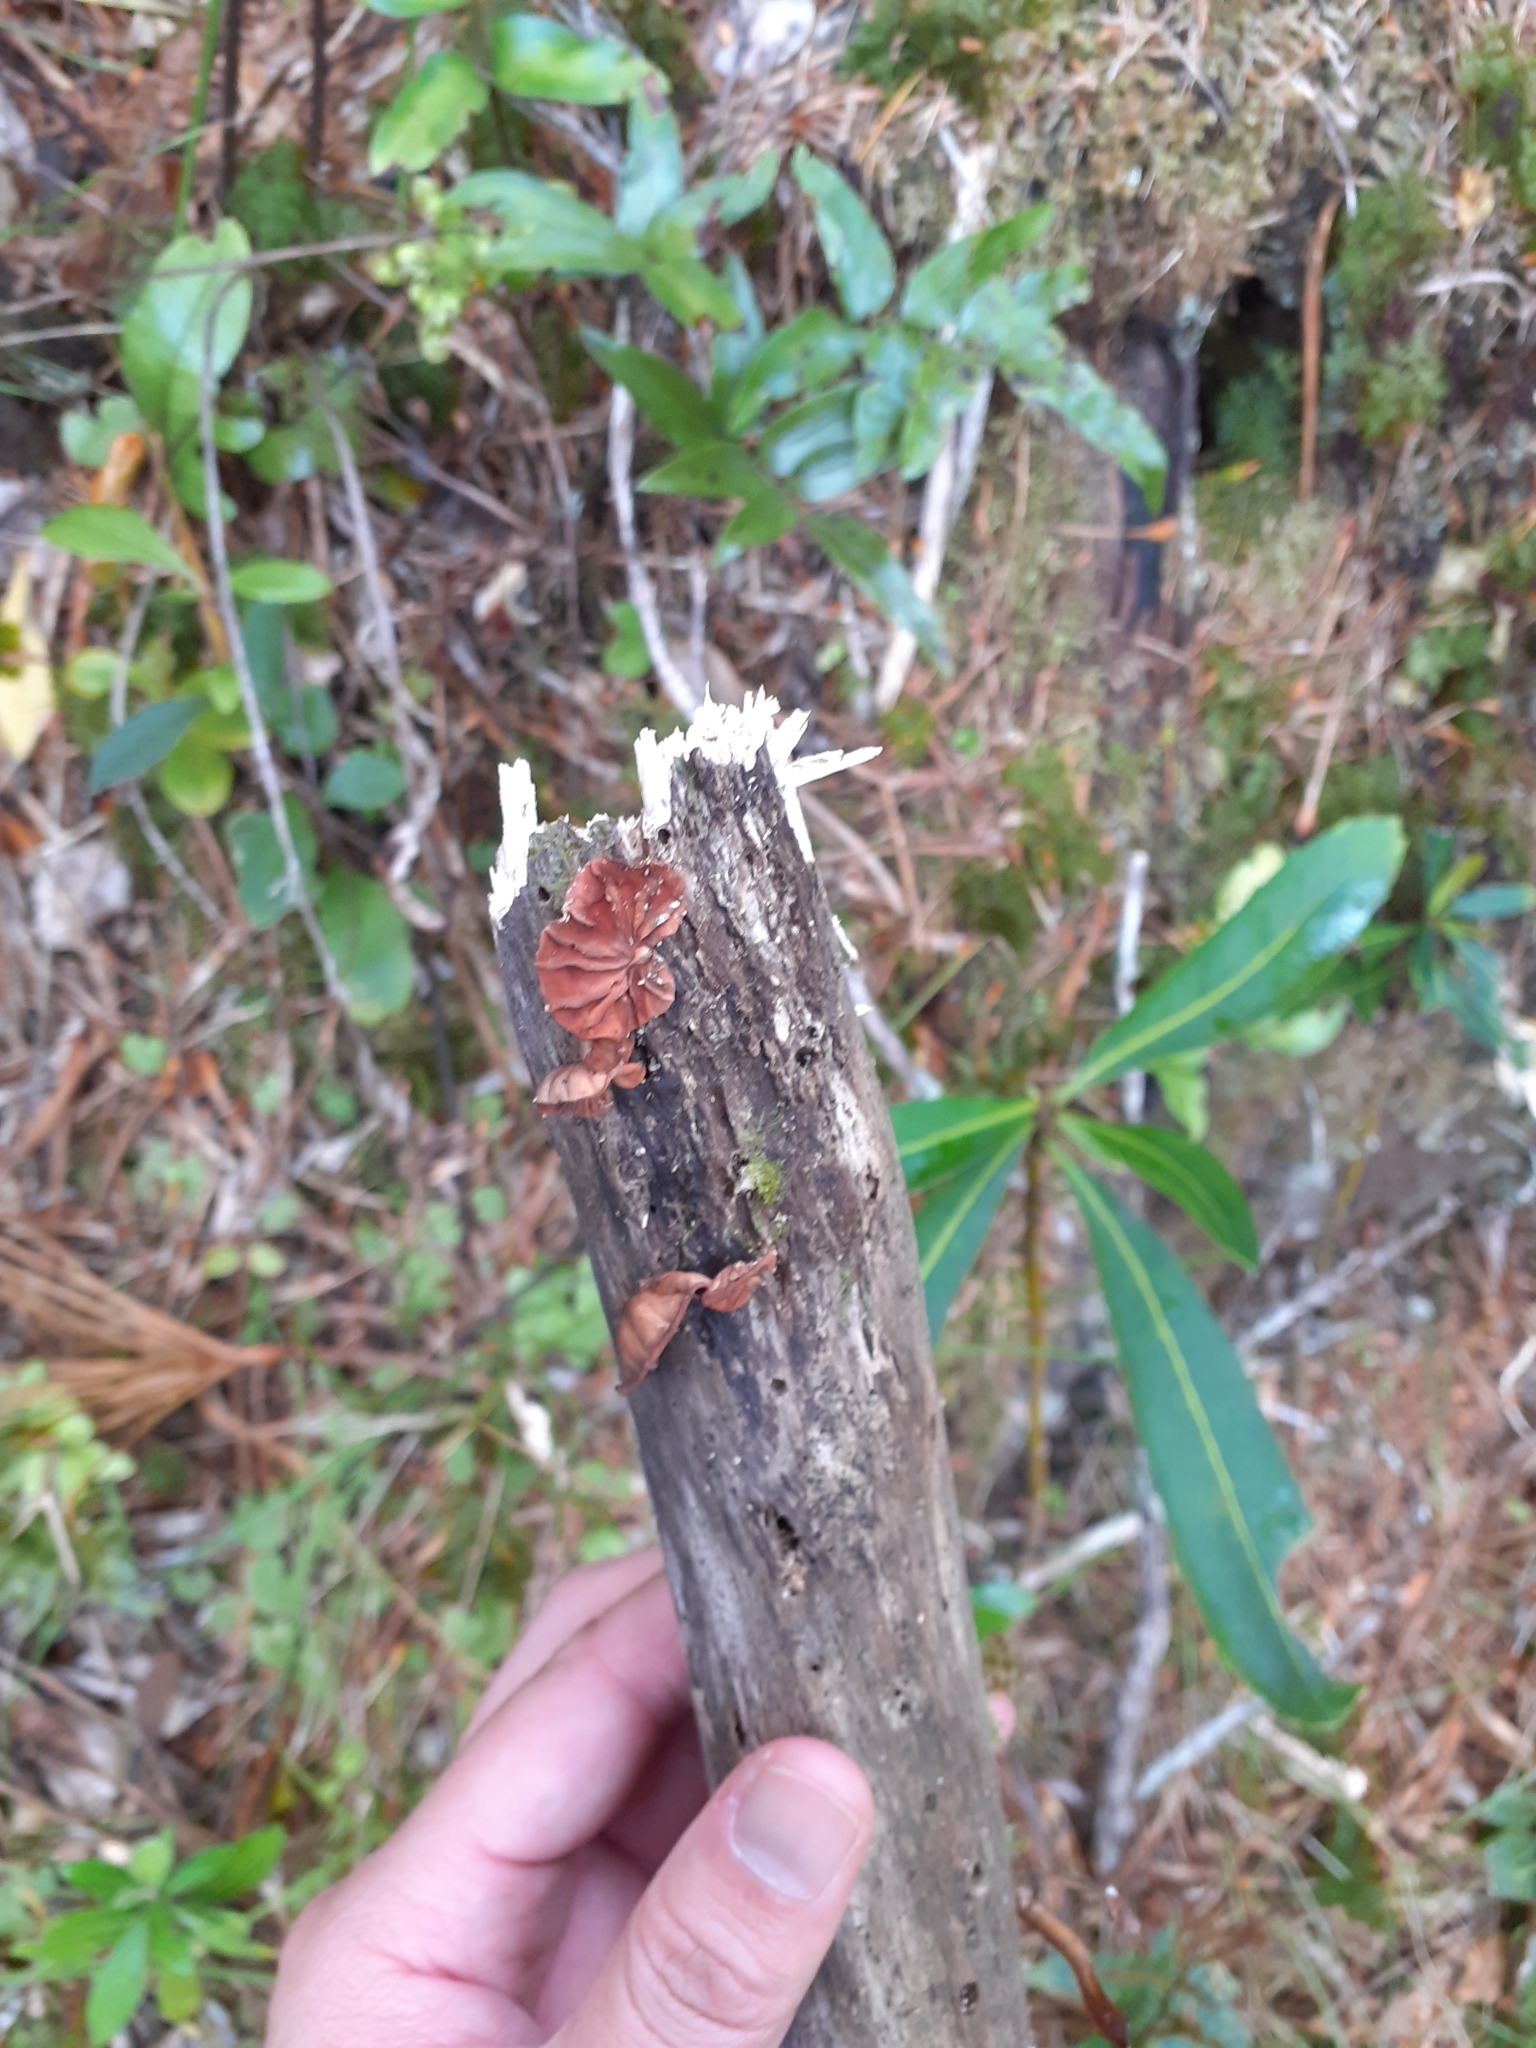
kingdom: Fungi
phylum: Basidiomycota
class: Agaricomycetes
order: Agaricales
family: Omphalotaceae
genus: Anthracophyllum
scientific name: Anthracophyllum archeri
